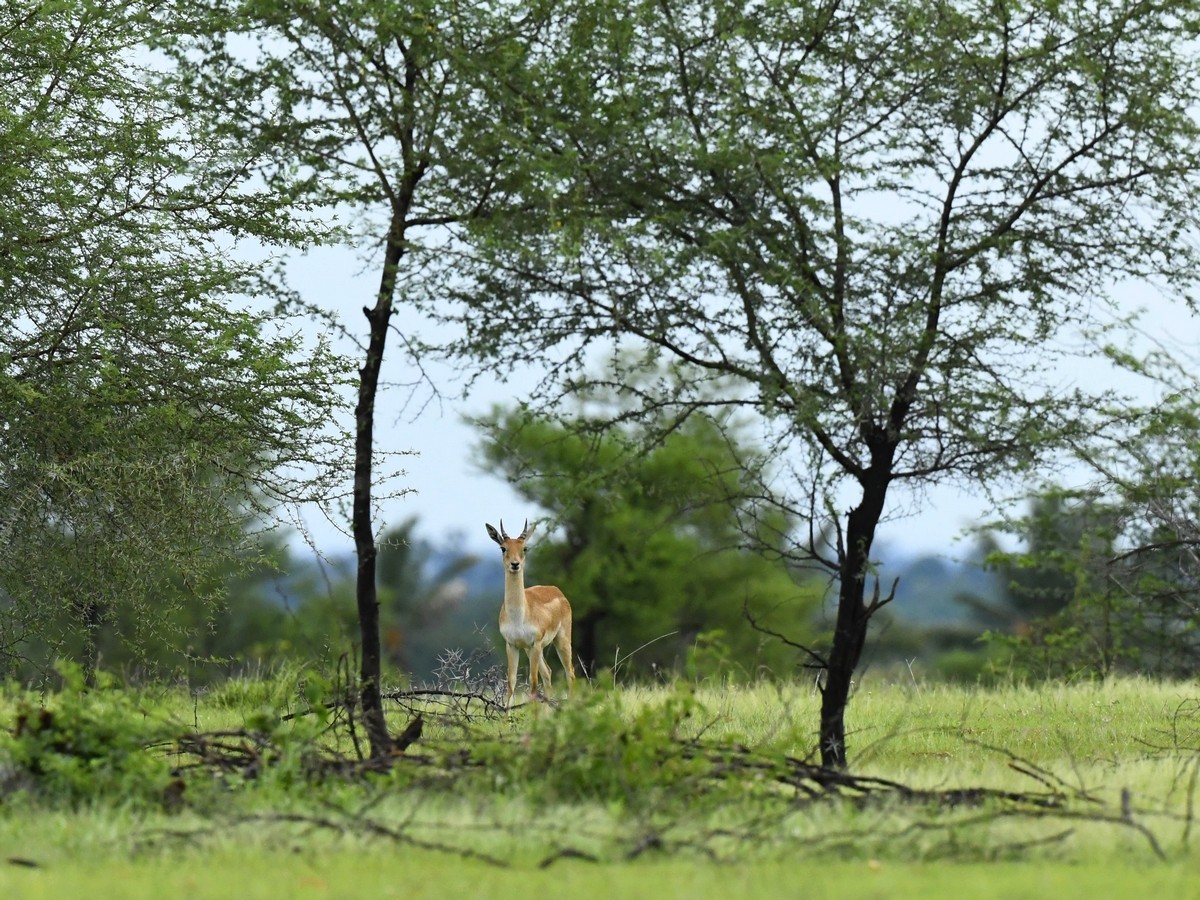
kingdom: Animalia
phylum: Chordata
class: Mammalia
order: Artiodactyla
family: Bovidae
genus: Antilope
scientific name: Antilope cervicapra
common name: Blackbuck
